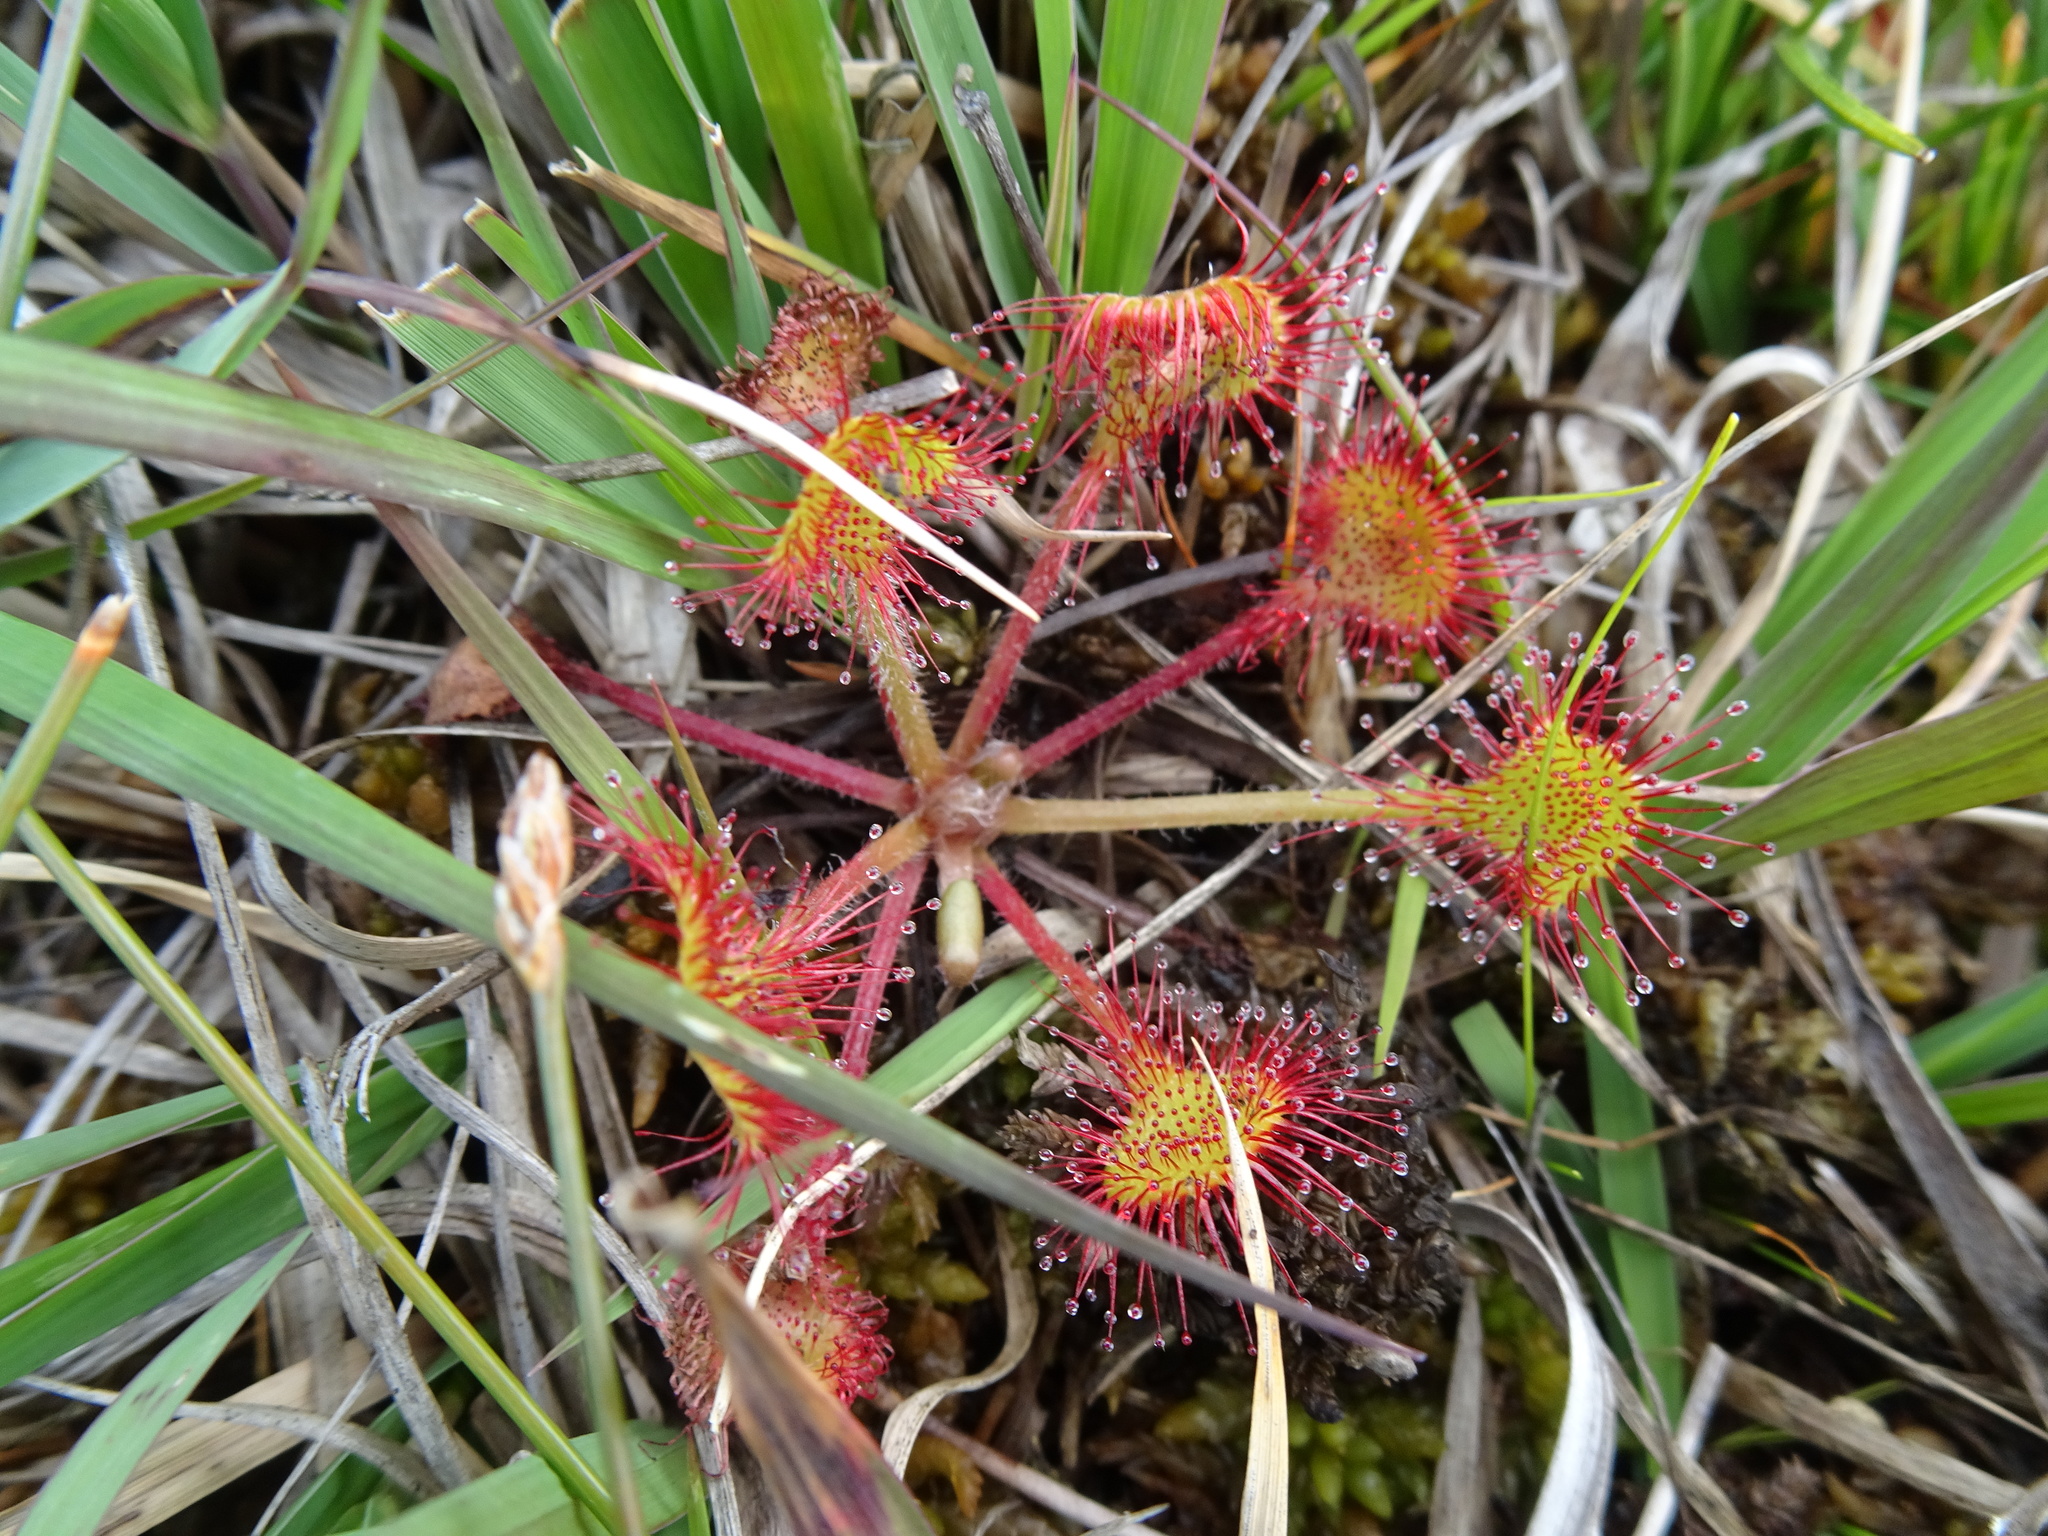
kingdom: Plantae
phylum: Tracheophyta
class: Magnoliopsida
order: Caryophyllales
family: Droseraceae
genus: Drosera
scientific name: Drosera rotundifolia
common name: Round-leaved sundew
